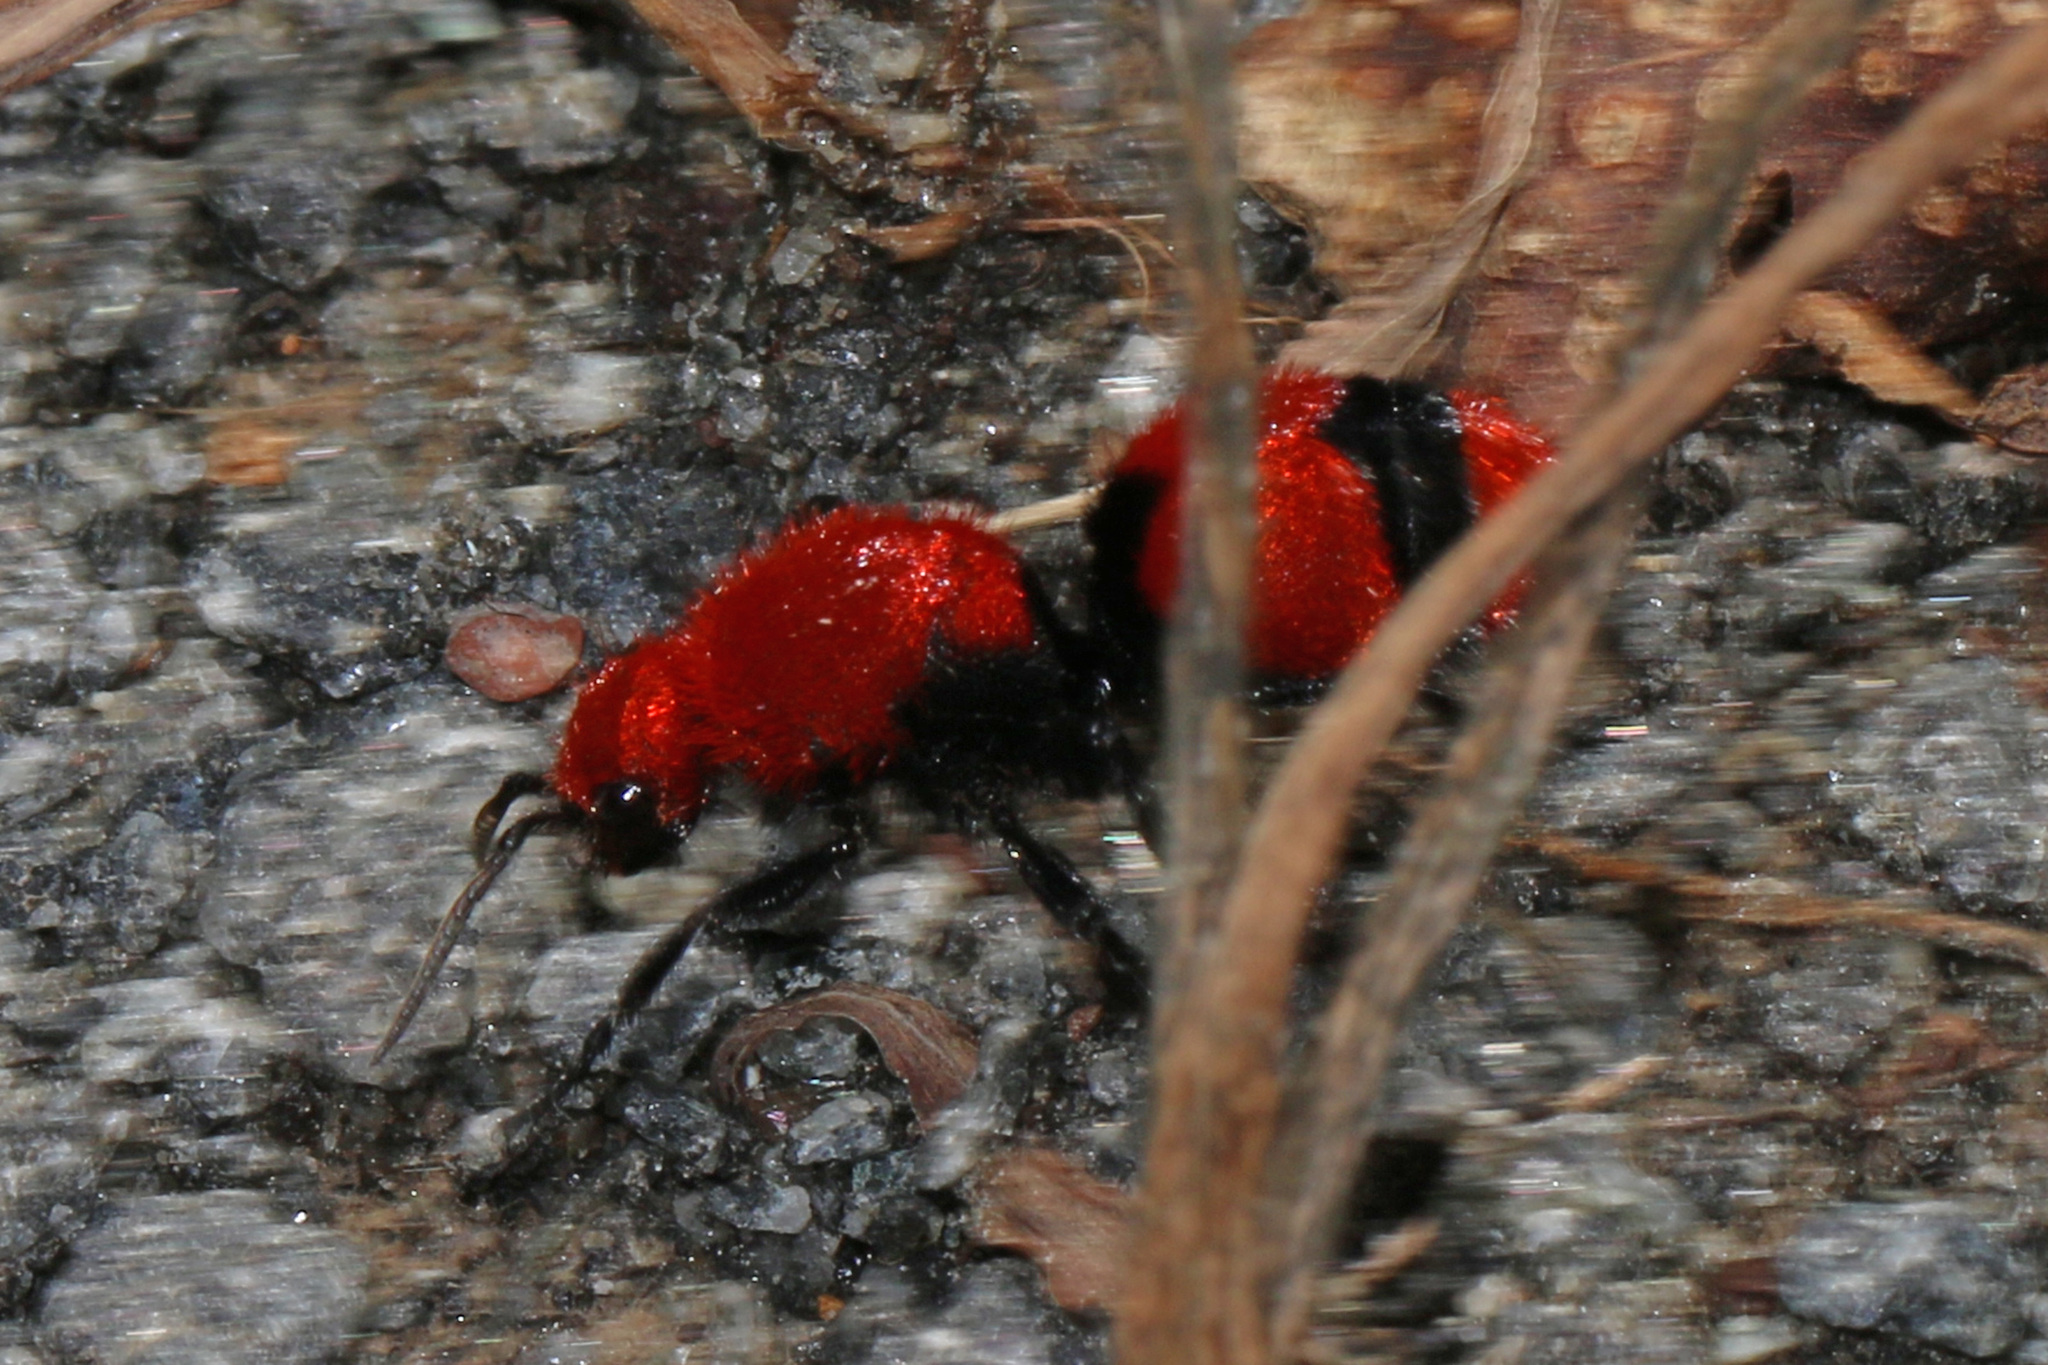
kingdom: Animalia
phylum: Arthropoda
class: Insecta
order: Hymenoptera
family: Mutillidae
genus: Dasymutilla
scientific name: Dasymutilla occidentalis
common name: Common eastern velvet ant
